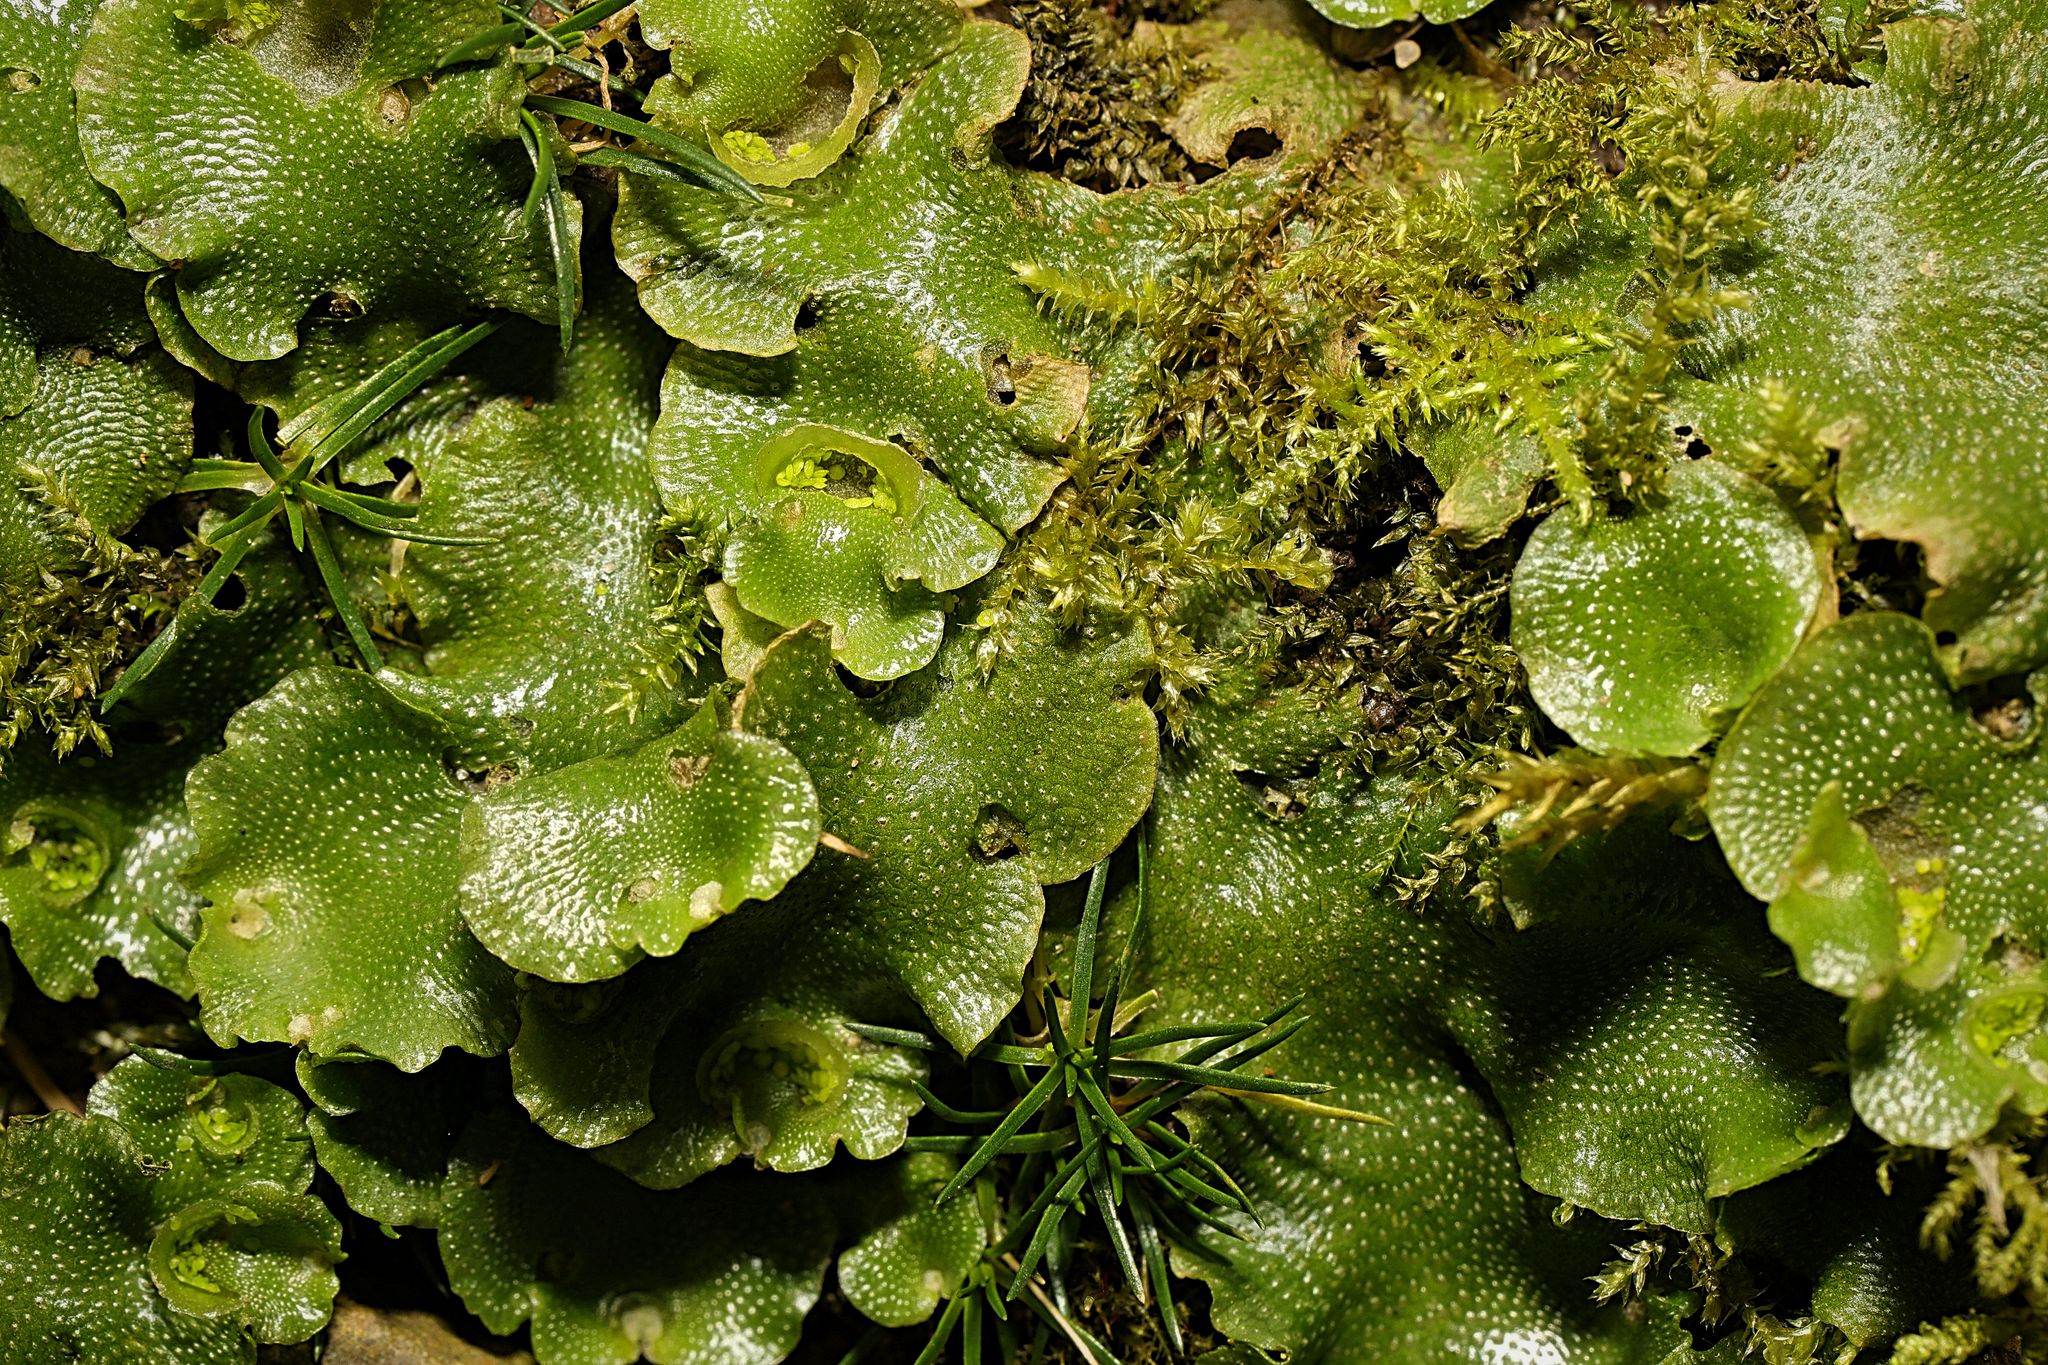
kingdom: Plantae
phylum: Marchantiophyta
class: Marchantiopsida
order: Lunulariales
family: Lunulariaceae
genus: Lunularia
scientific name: Lunularia cruciata
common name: Crescent-cup liverwort
